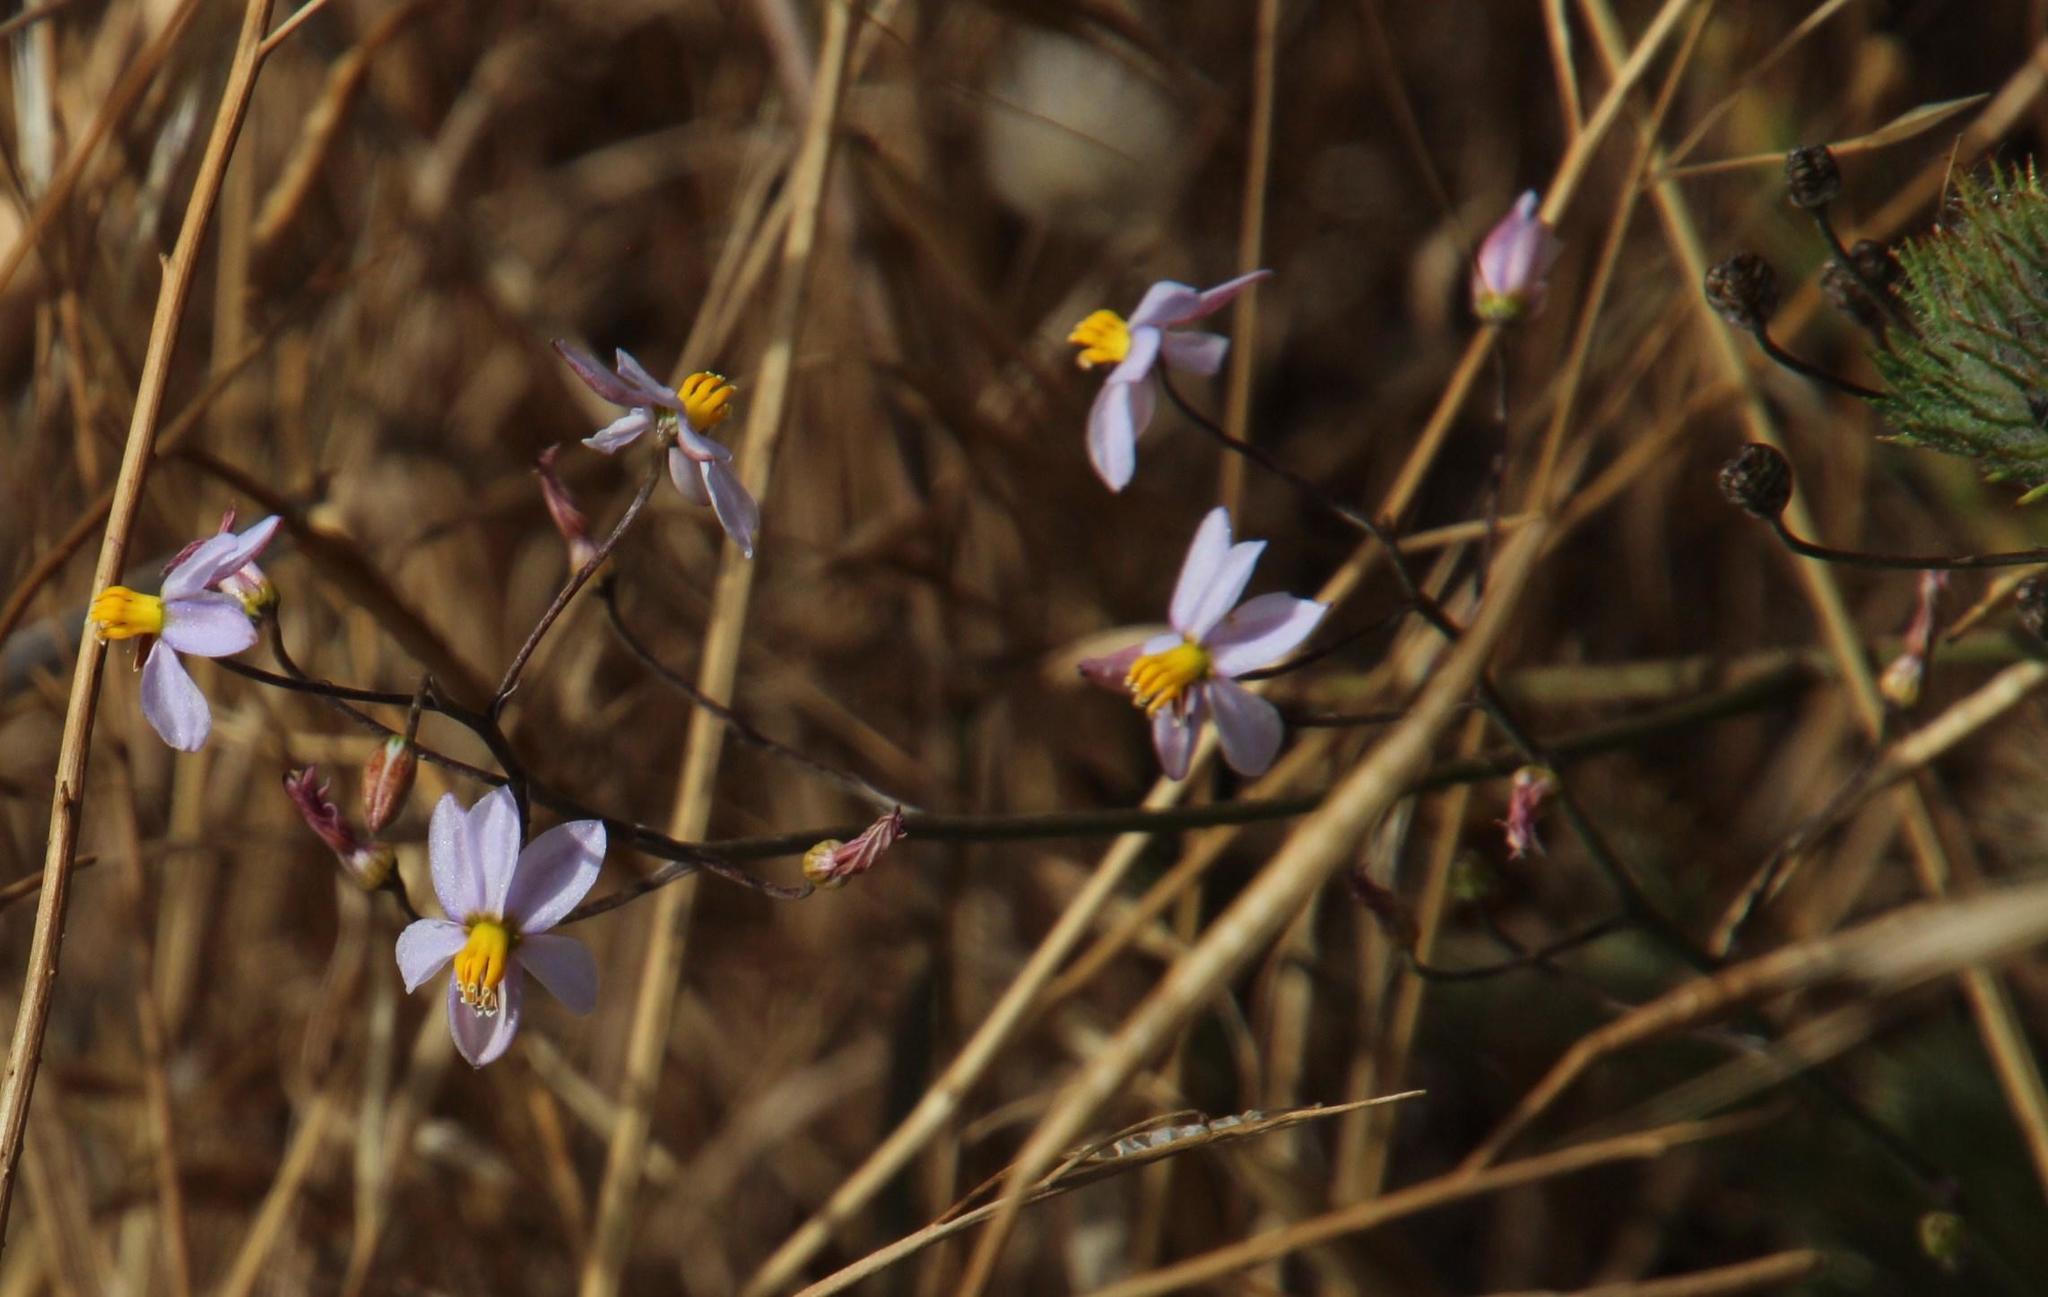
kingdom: Plantae
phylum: Tracheophyta
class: Liliopsida
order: Asparagales
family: Tecophilaeaceae
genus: Cyanella
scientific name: Cyanella hyacinthoides
